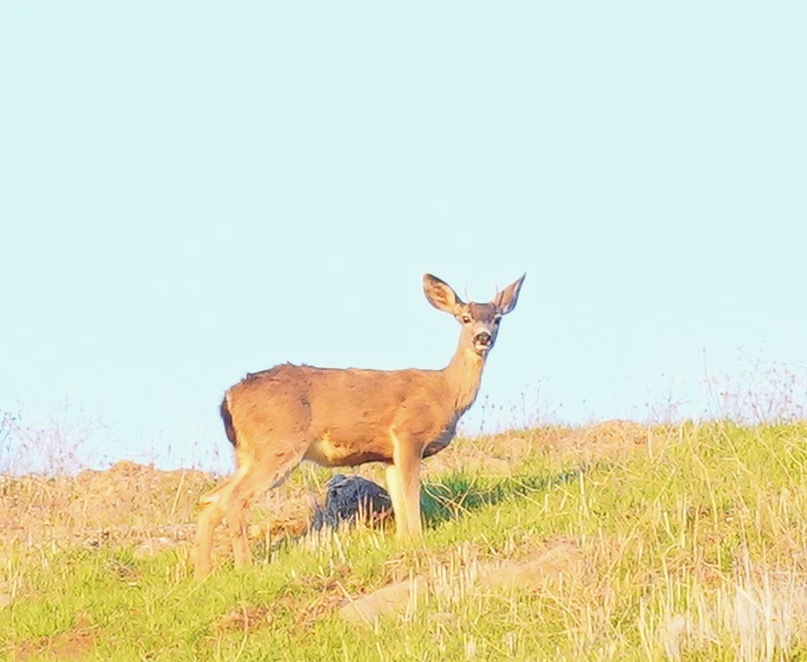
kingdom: Animalia
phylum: Chordata
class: Mammalia
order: Artiodactyla
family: Cervidae
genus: Odocoileus
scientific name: Odocoileus hemionus
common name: Mule deer
